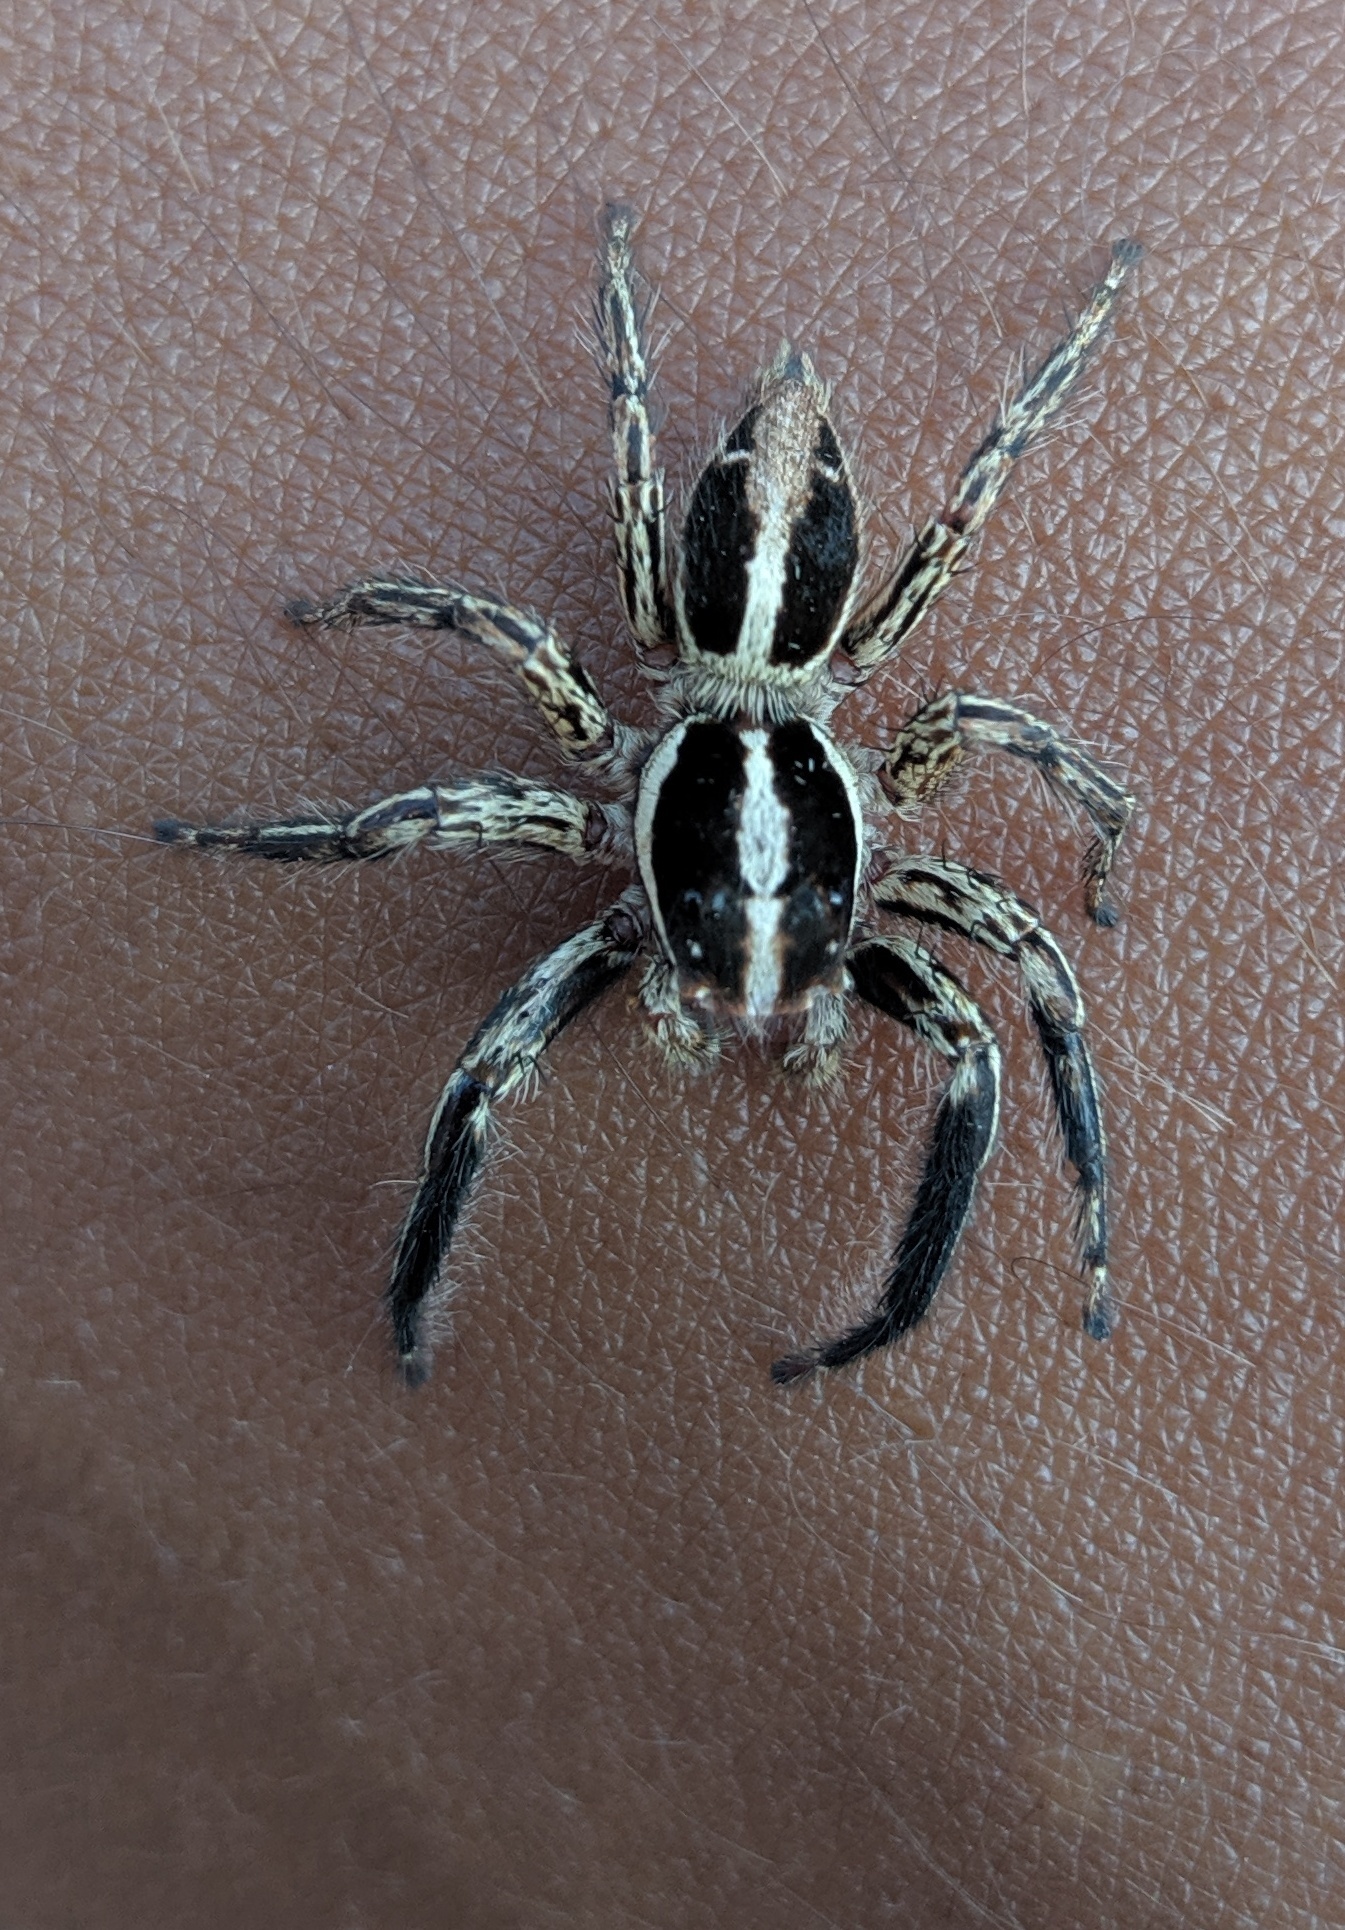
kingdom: Animalia
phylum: Arthropoda
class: Arachnida
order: Araneae
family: Salticidae
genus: Plexippus
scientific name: Plexippus paykulli
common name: Pantropical jumper
